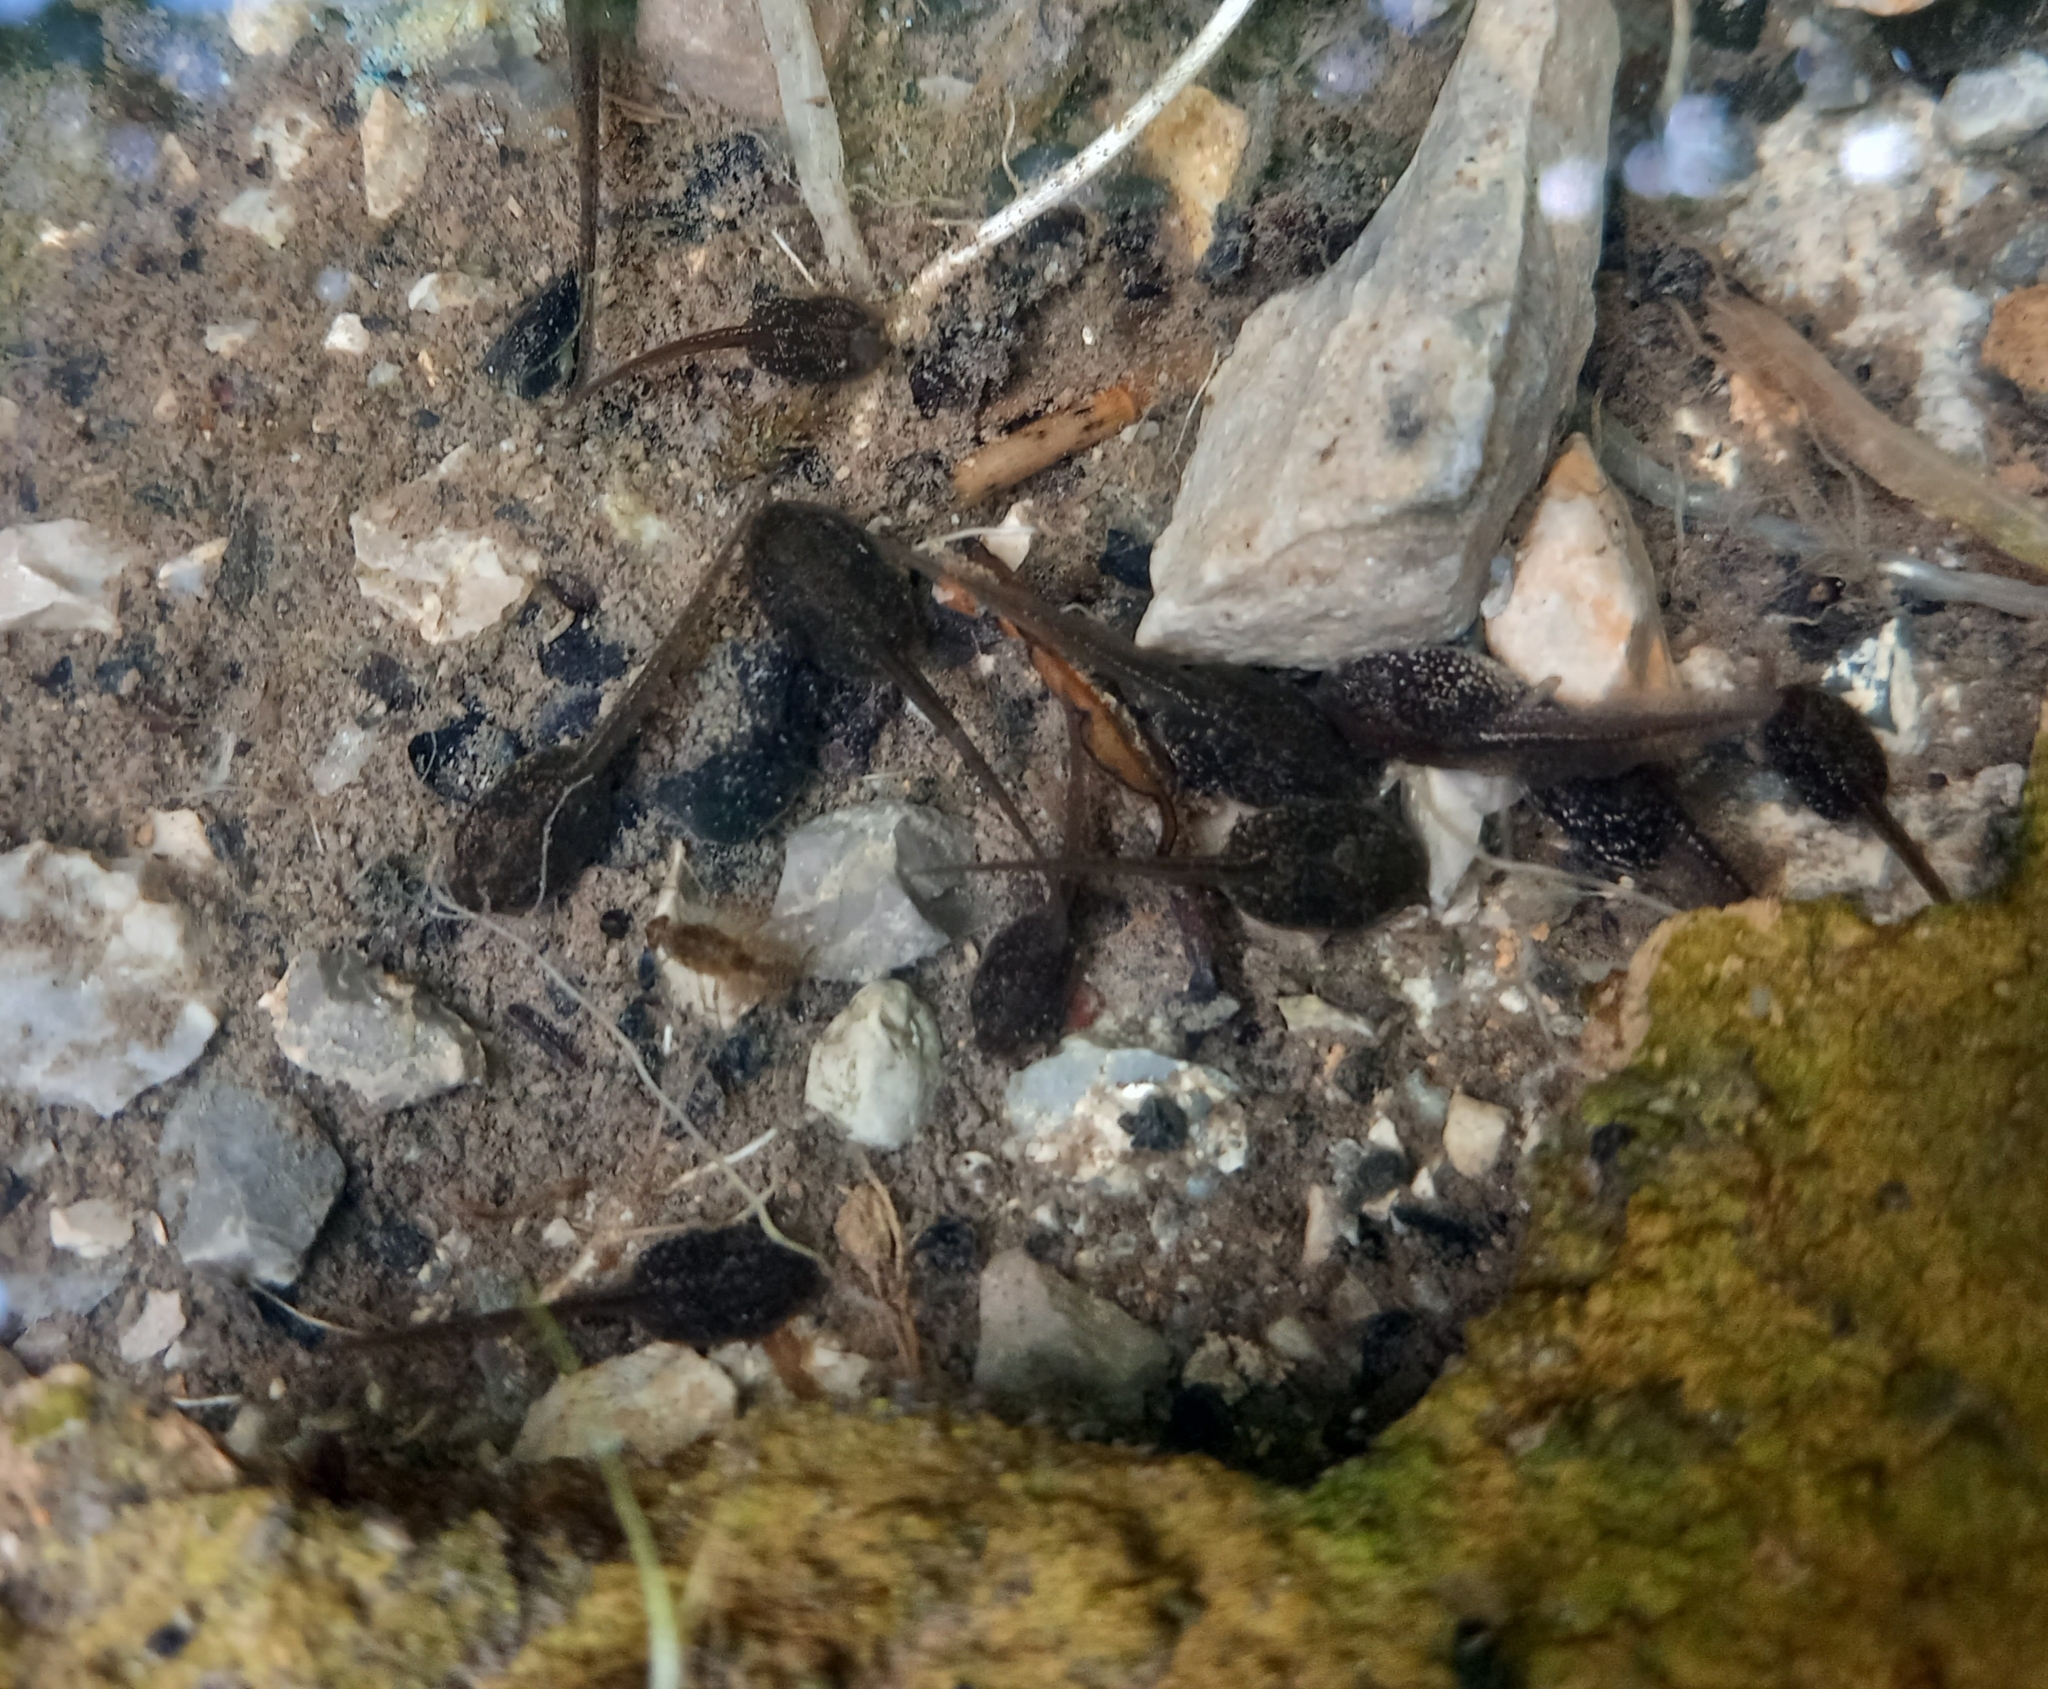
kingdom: Animalia
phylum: Chordata
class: Amphibia
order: Anura
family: Ranidae
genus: Rana
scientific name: Rana dalmatina
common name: Agile frog
